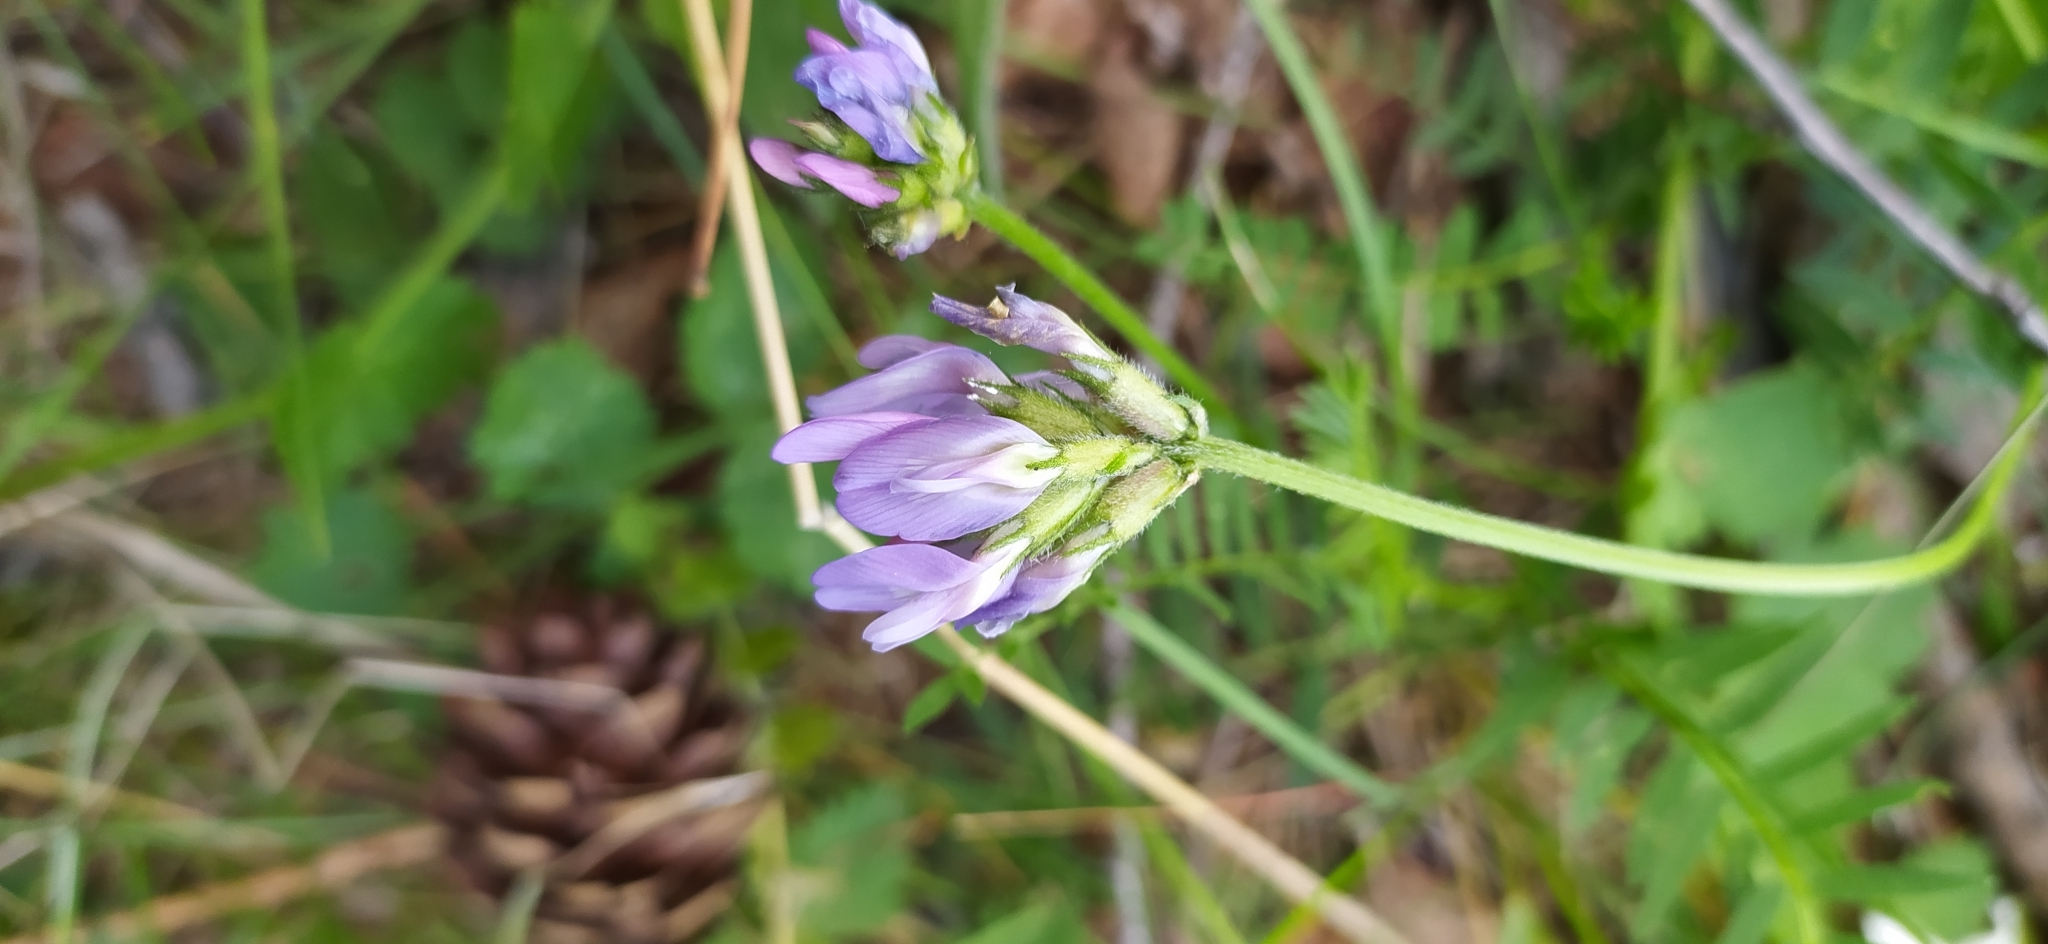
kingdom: Plantae
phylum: Tracheophyta
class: Magnoliopsida
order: Fabales
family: Fabaceae
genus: Astragalus
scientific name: Astragalus danicus
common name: Purple milk-vetch
